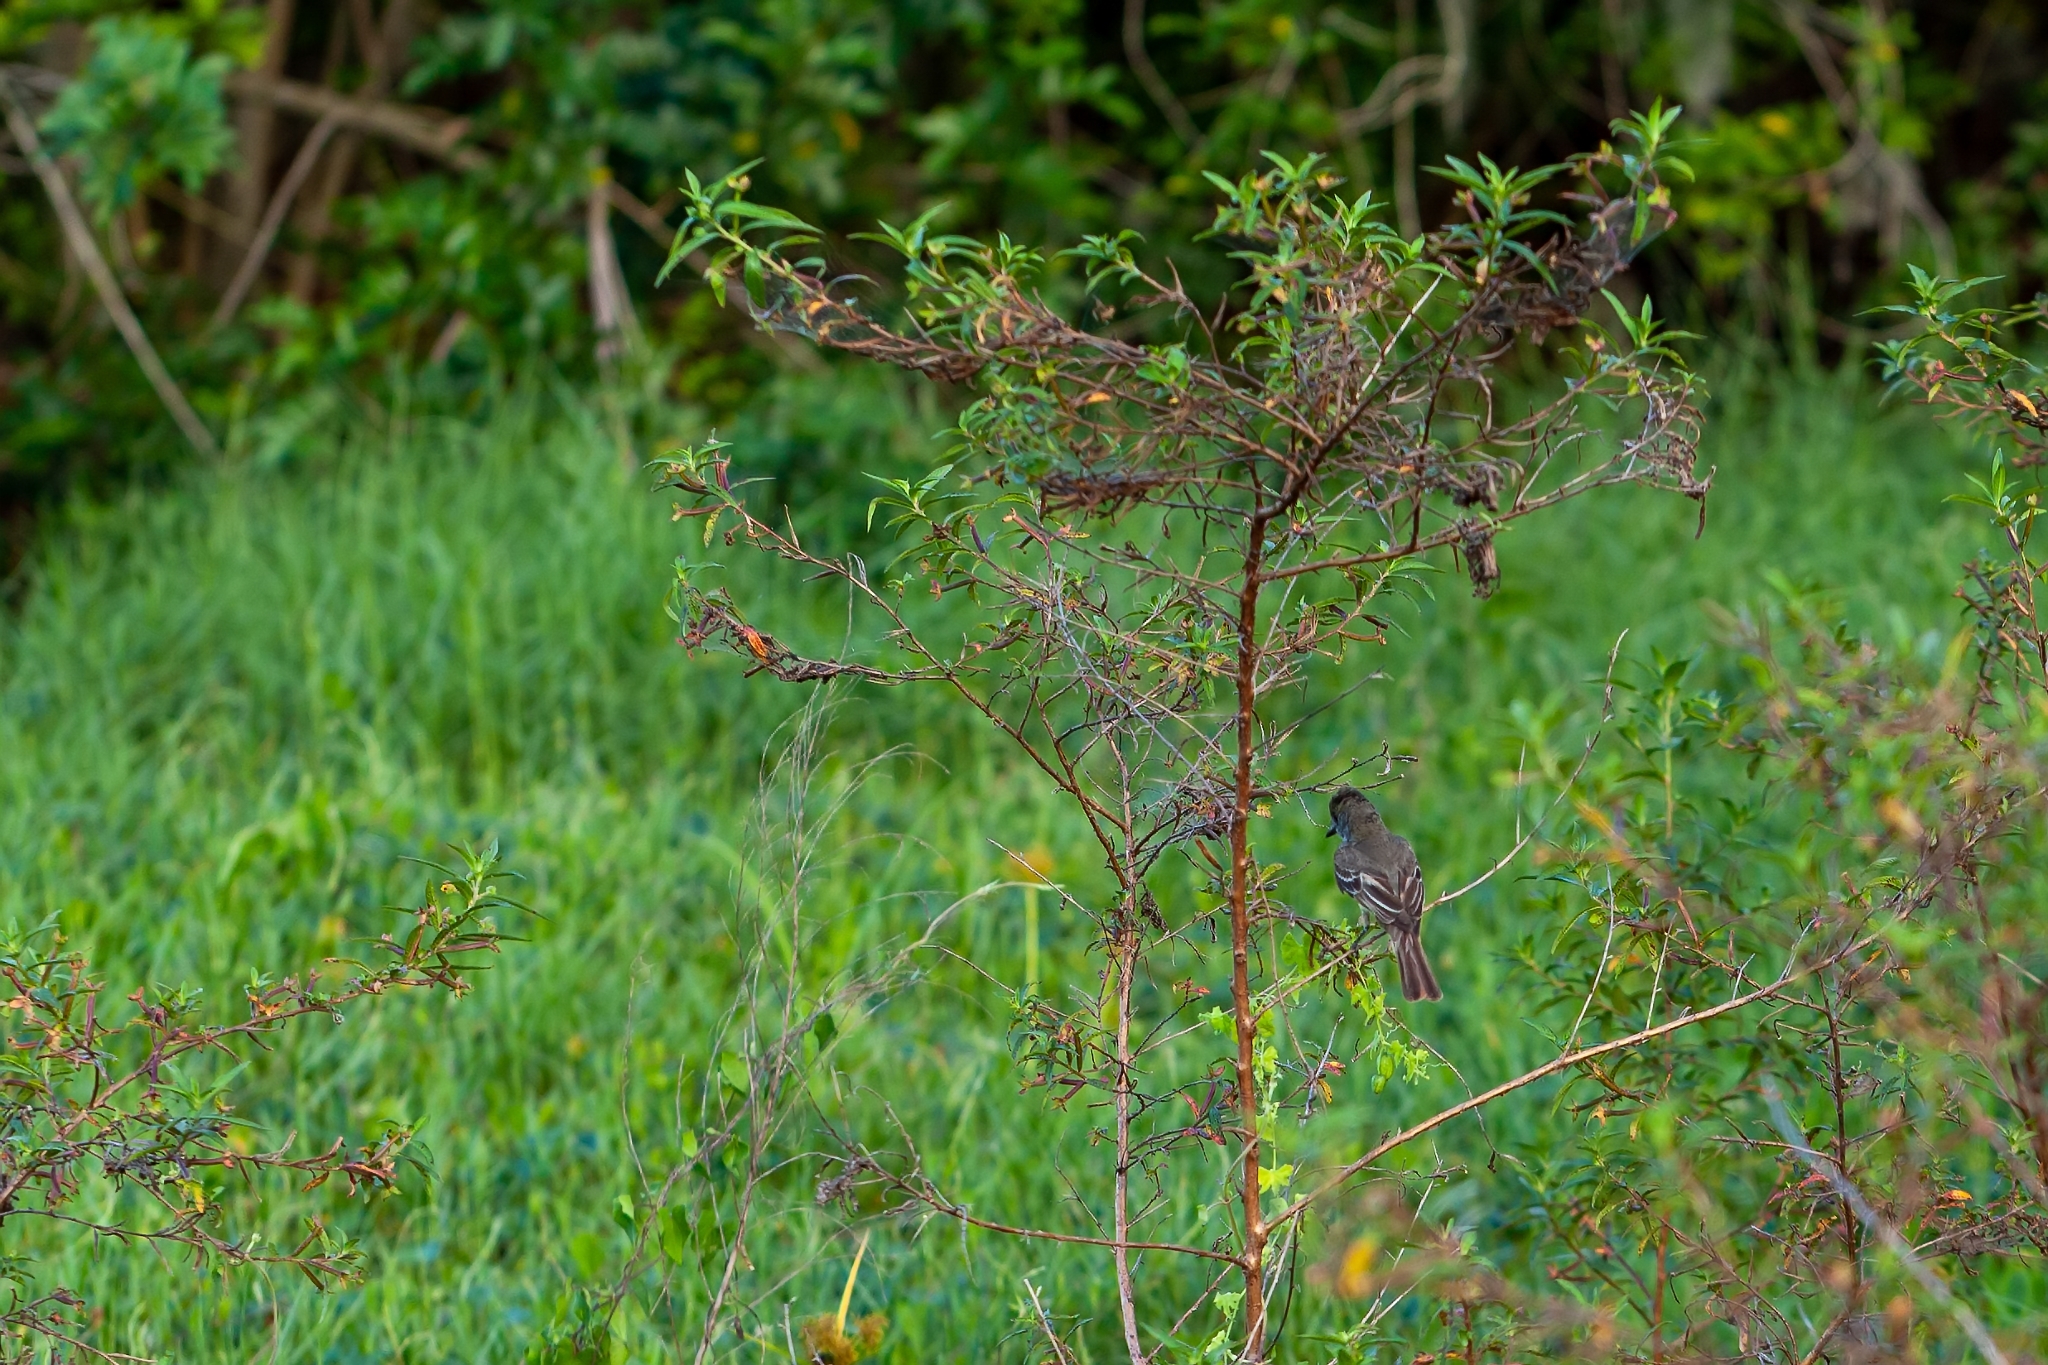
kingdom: Animalia
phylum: Chordata
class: Aves
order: Passeriformes
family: Tyrannidae
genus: Myiarchus
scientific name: Myiarchus crinitus
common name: Great crested flycatcher
